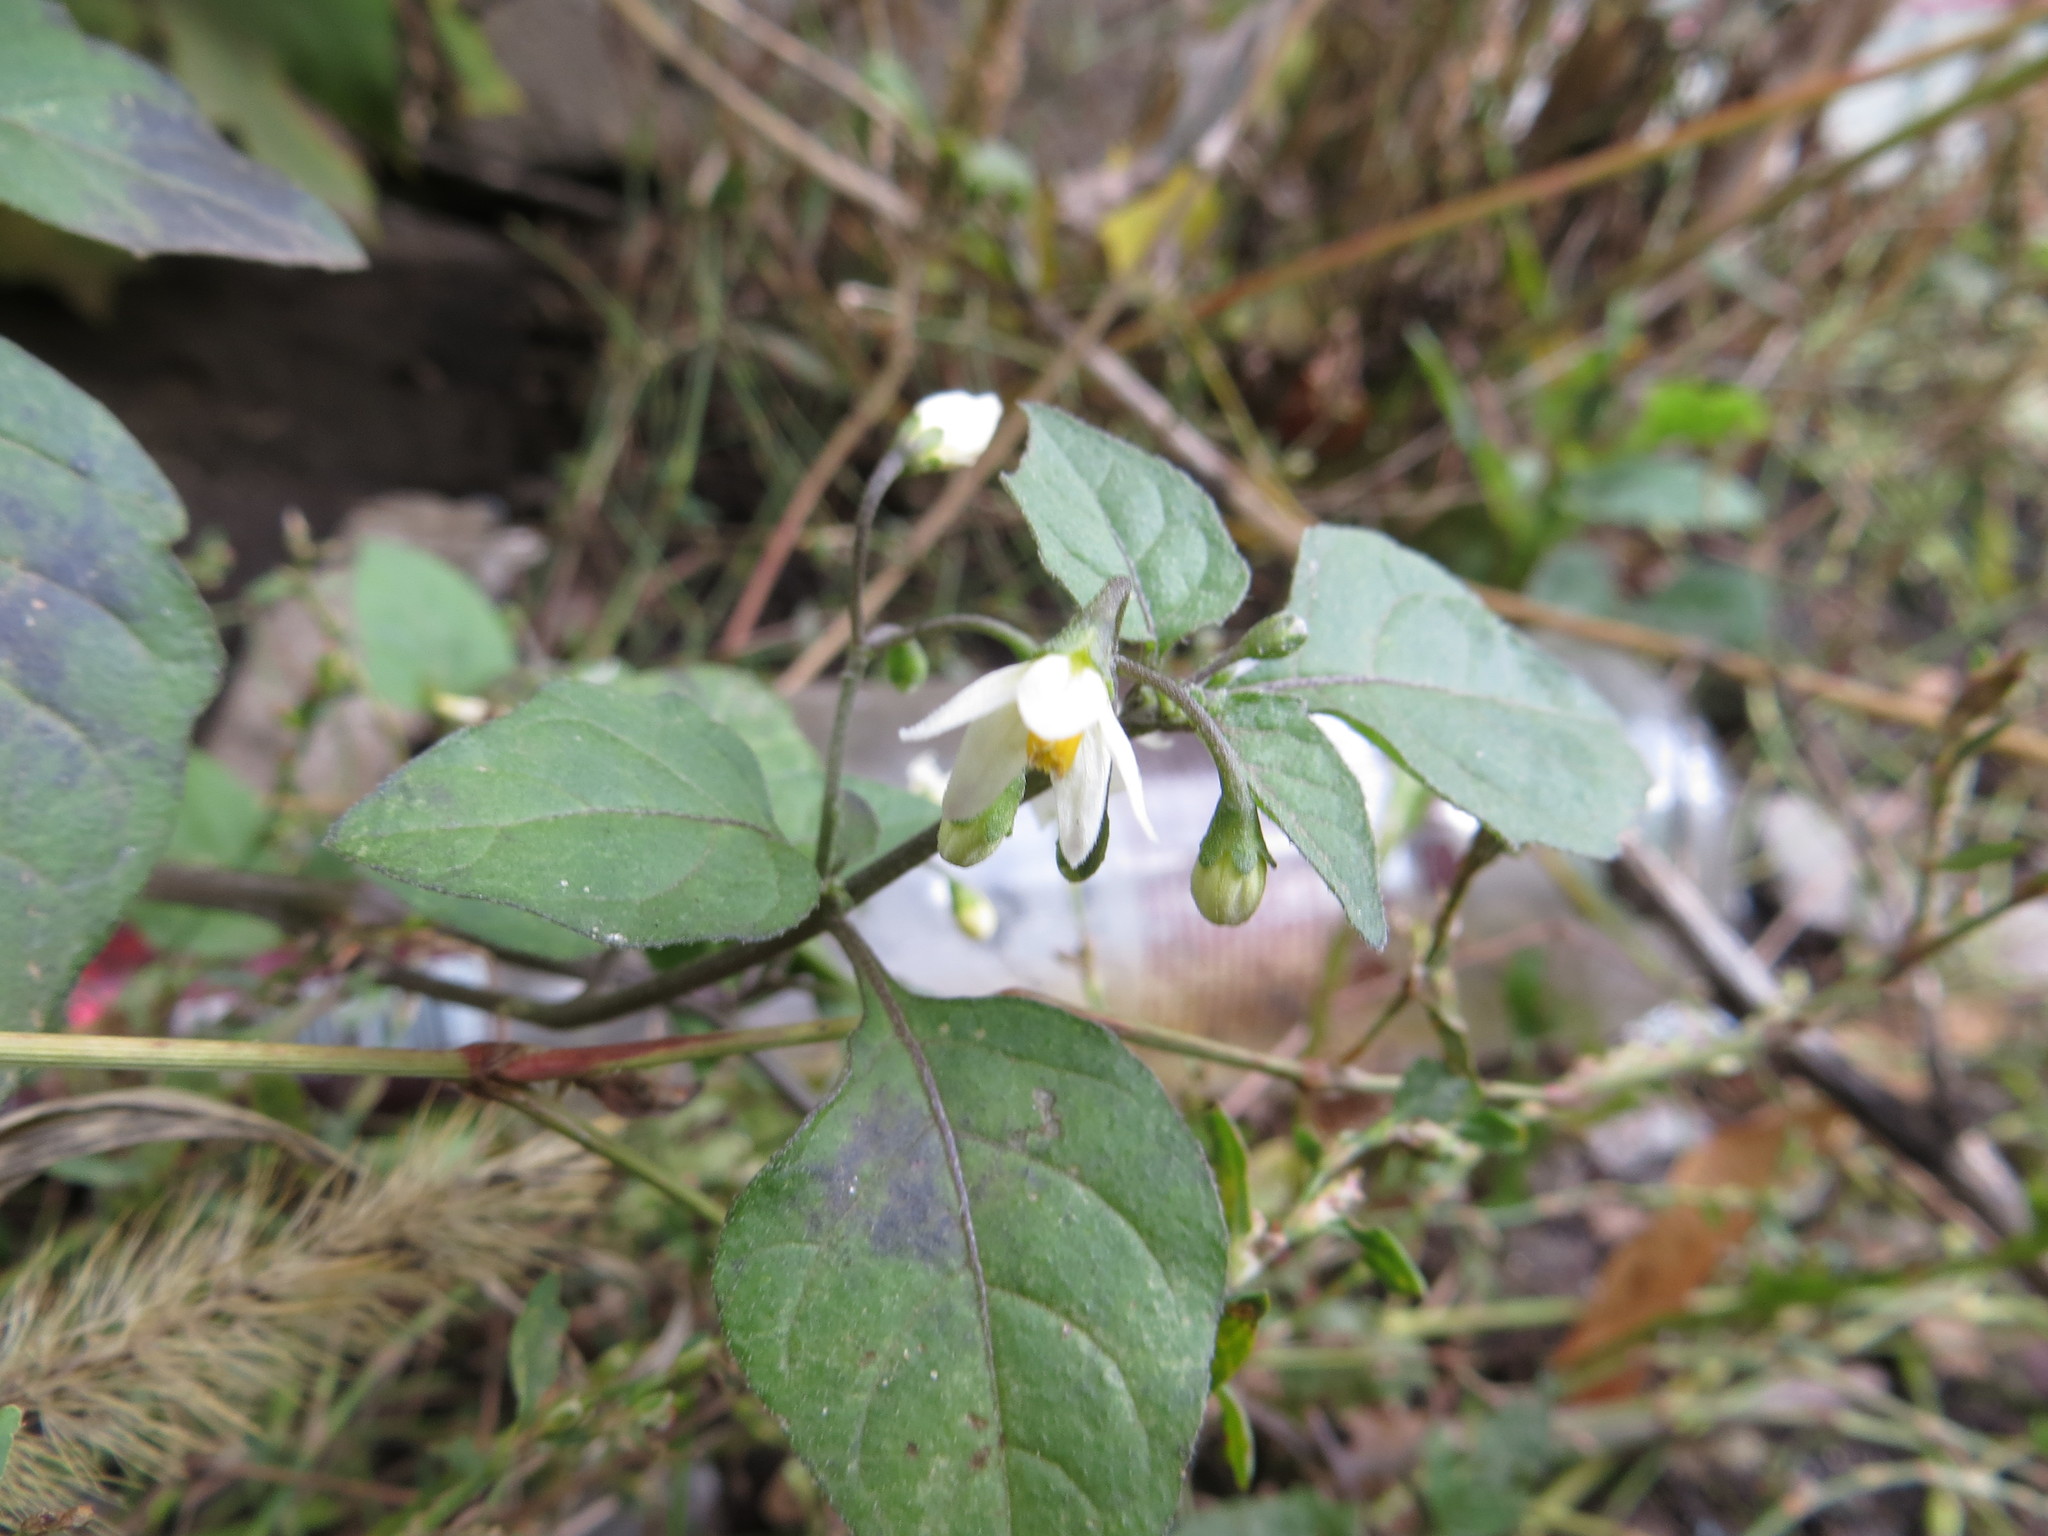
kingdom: Plantae
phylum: Tracheophyta
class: Magnoliopsida
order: Solanales
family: Solanaceae
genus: Solanum
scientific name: Solanum nigrum
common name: Black nightshade
